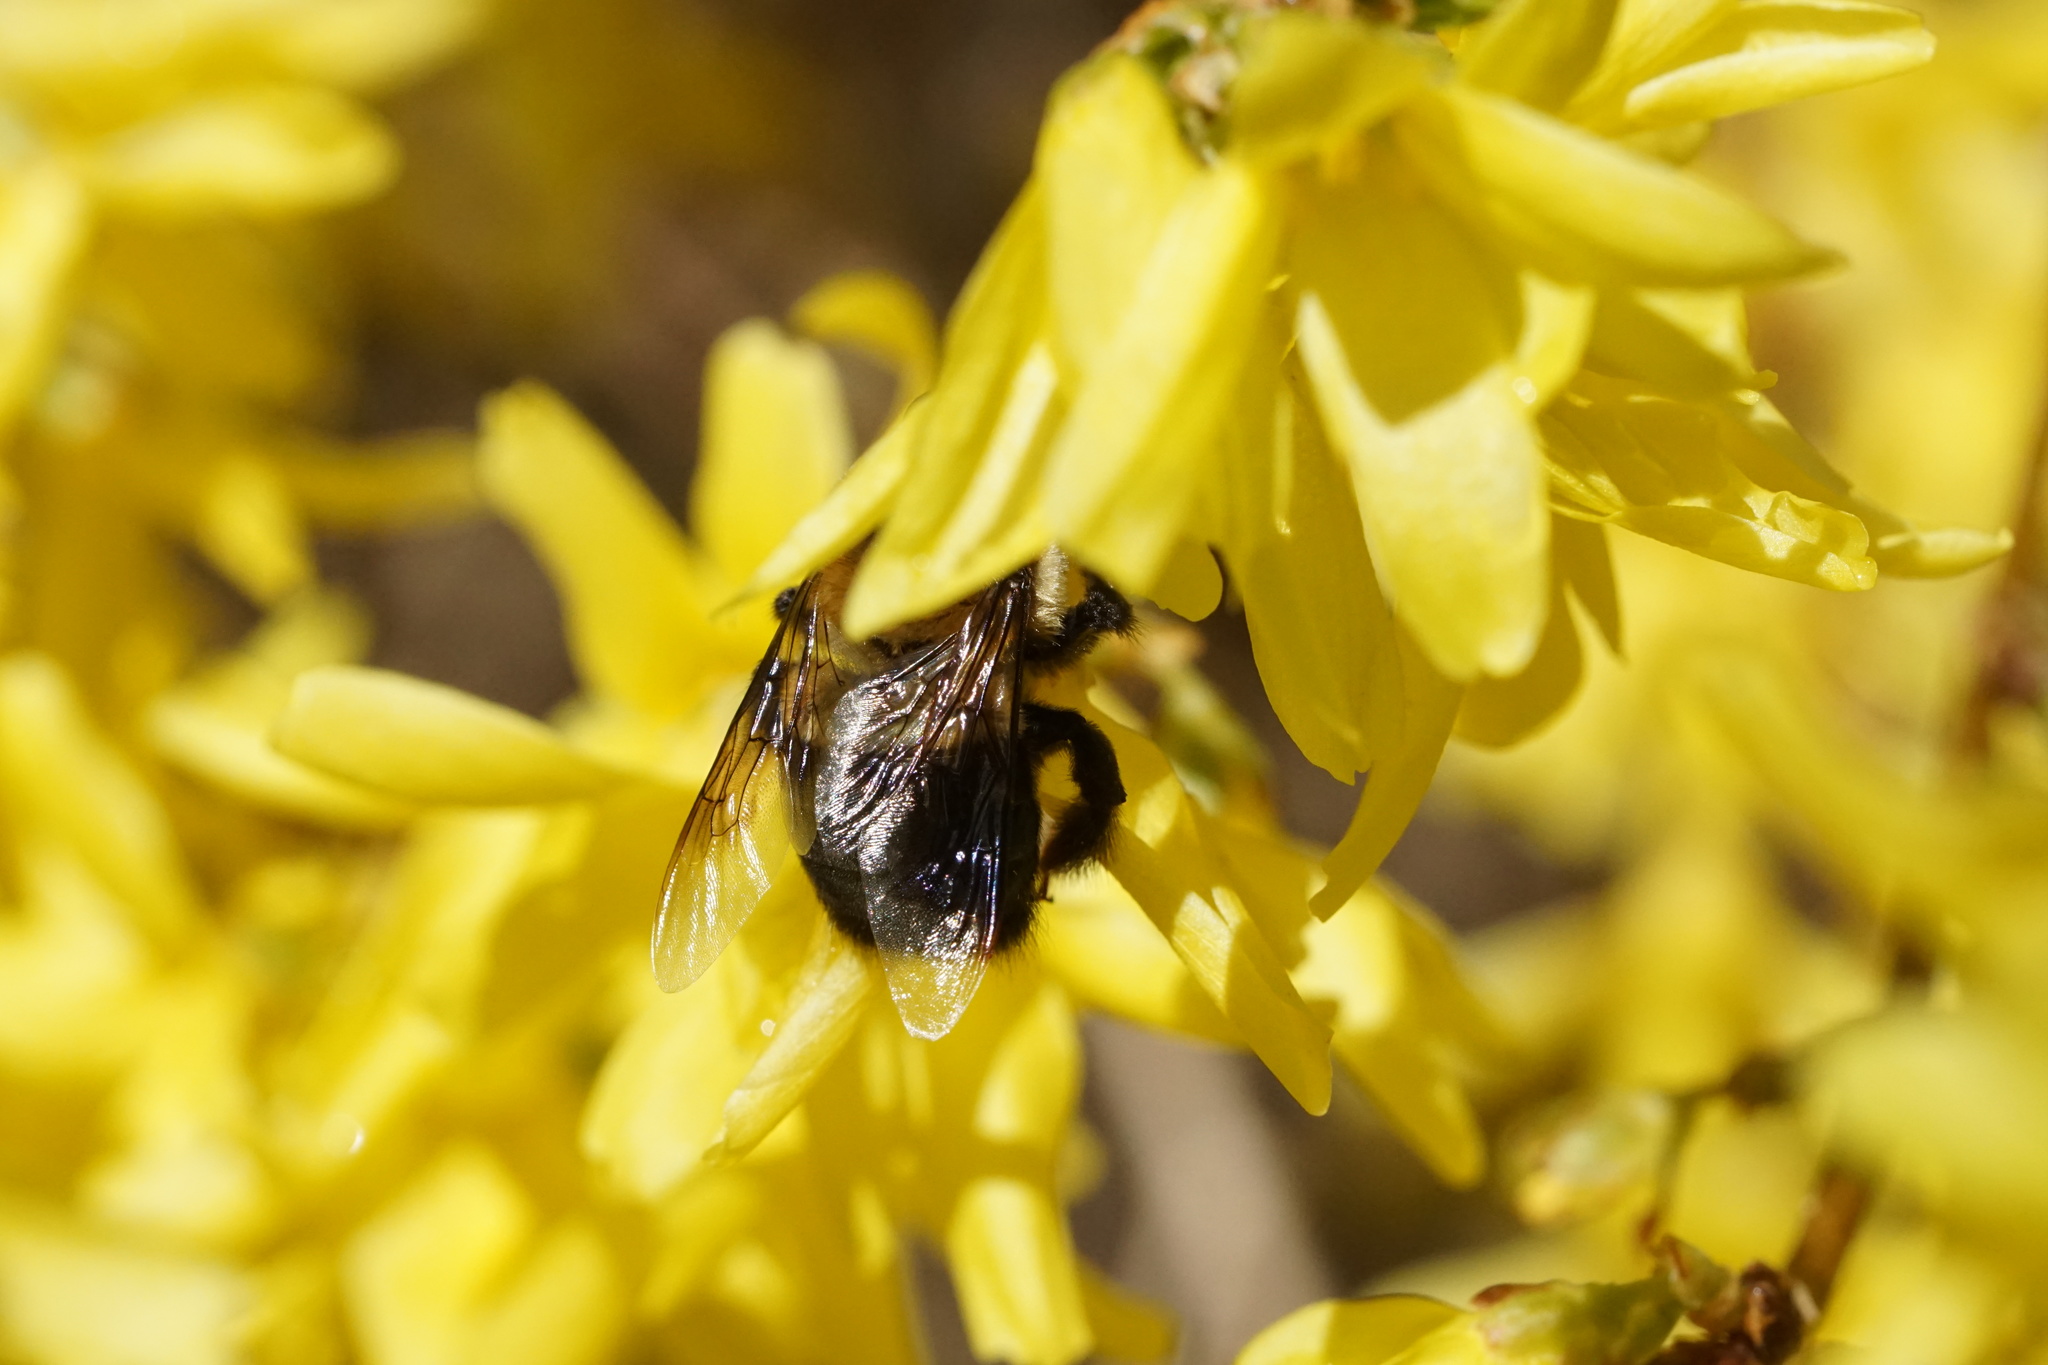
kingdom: Animalia
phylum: Arthropoda
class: Insecta
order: Hymenoptera
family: Apidae
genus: Xylocopa
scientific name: Xylocopa virginica
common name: Carpenter bee
